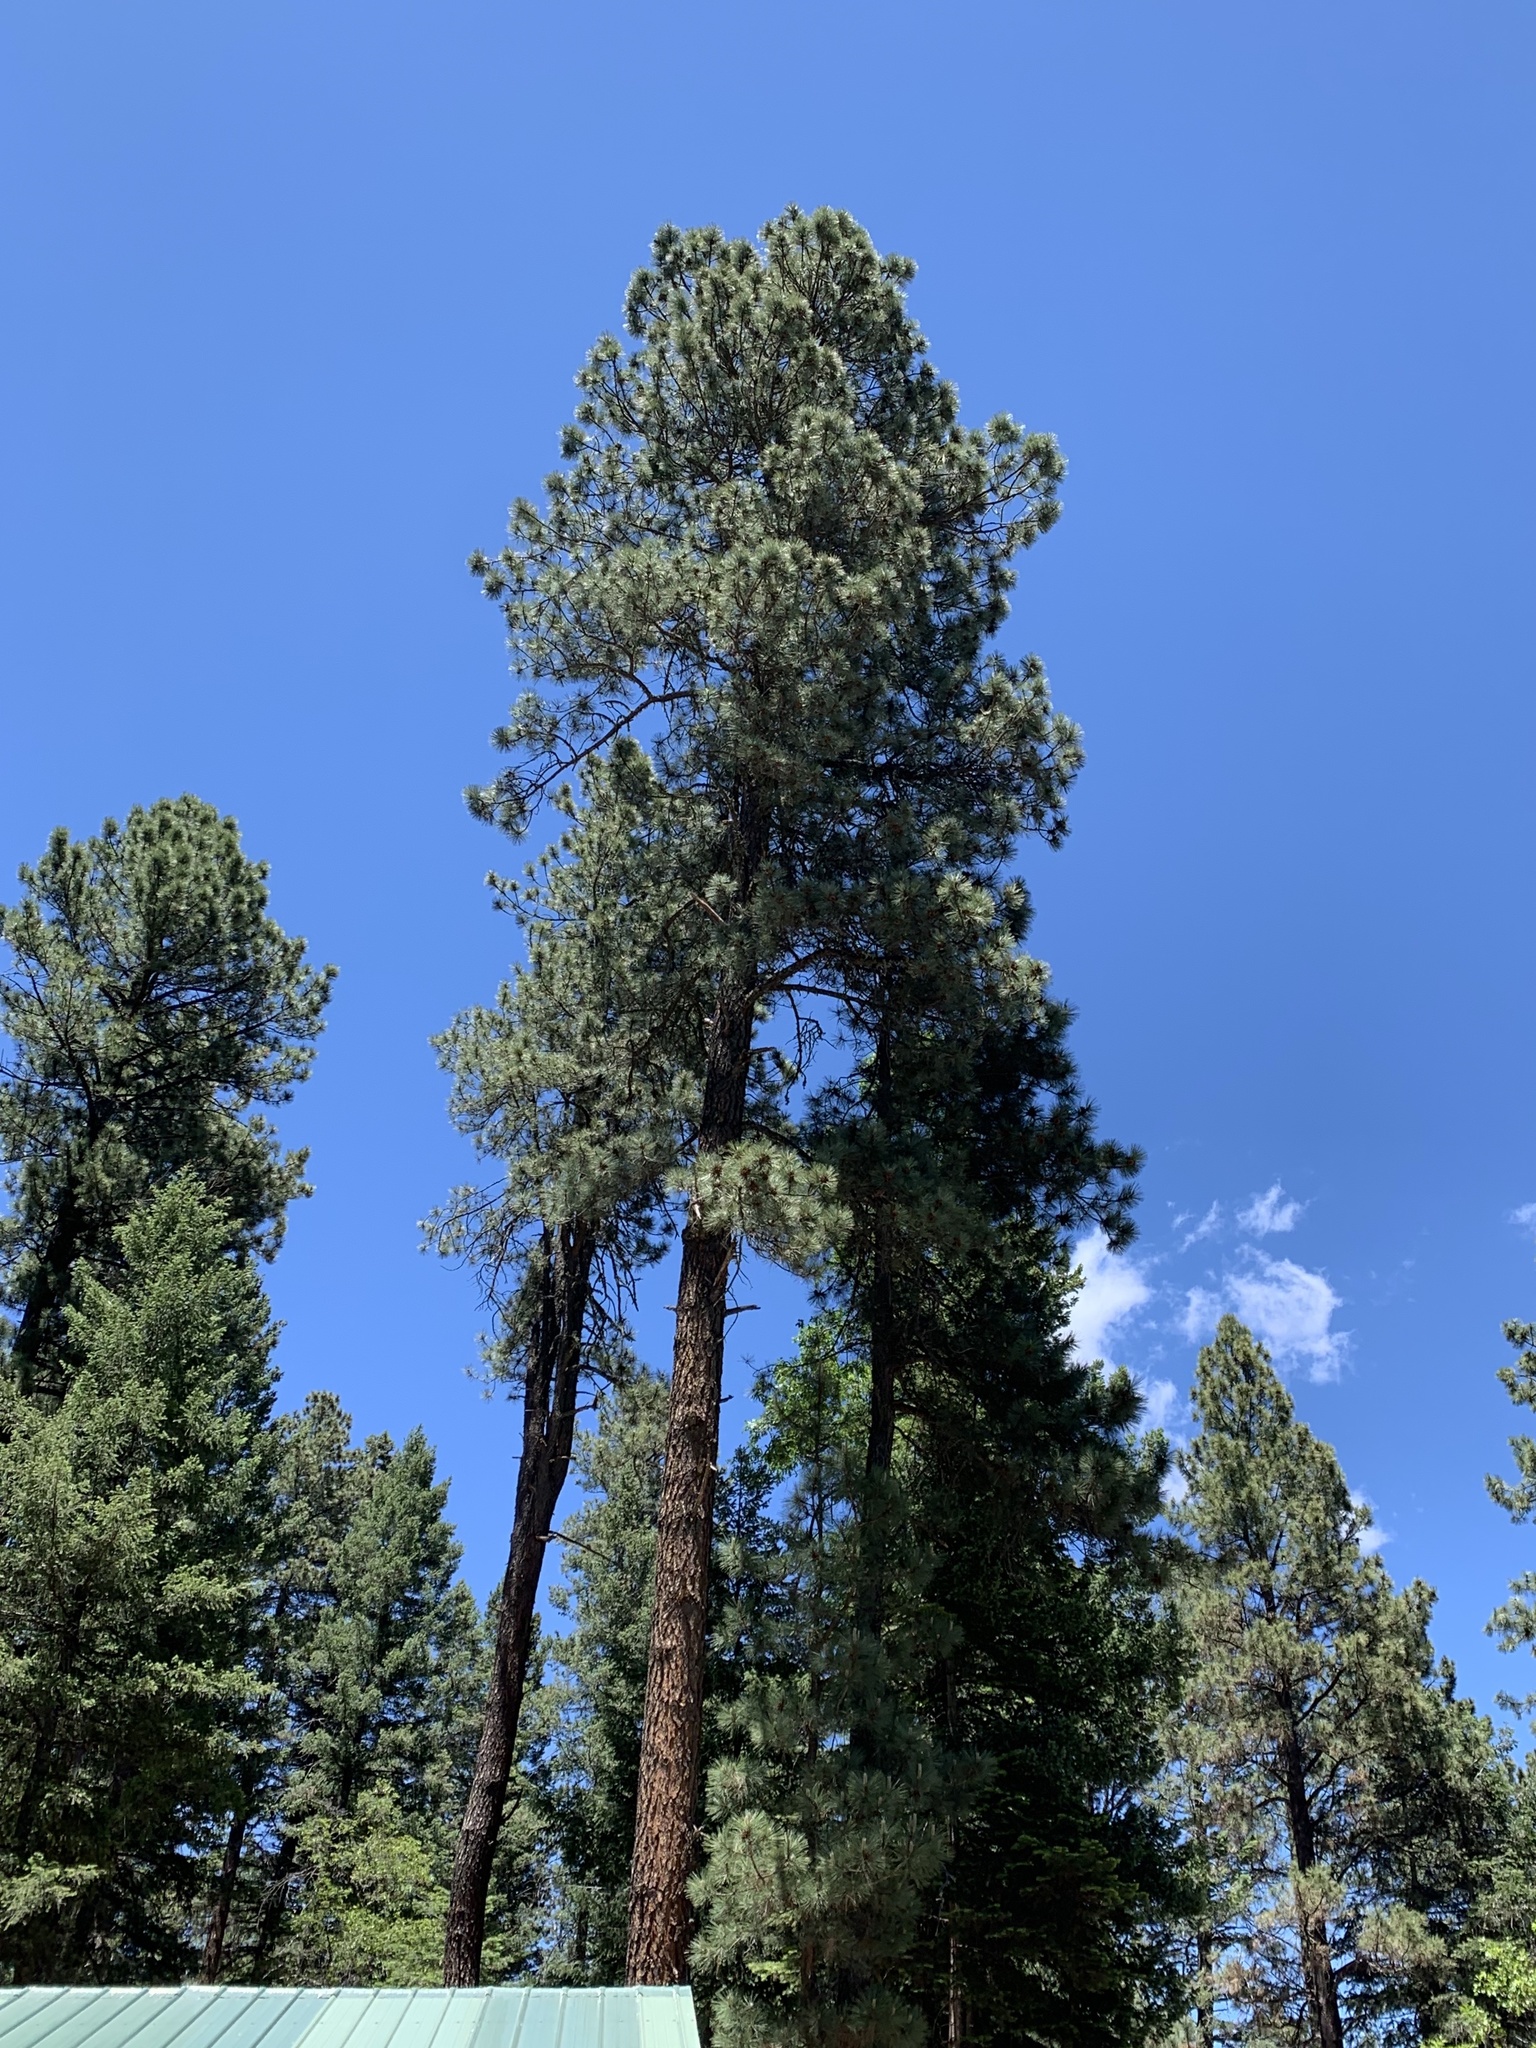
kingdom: Plantae
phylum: Tracheophyta
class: Pinopsida
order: Pinales
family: Pinaceae
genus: Pinus
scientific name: Pinus ponderosa
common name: Western yellow-pine
